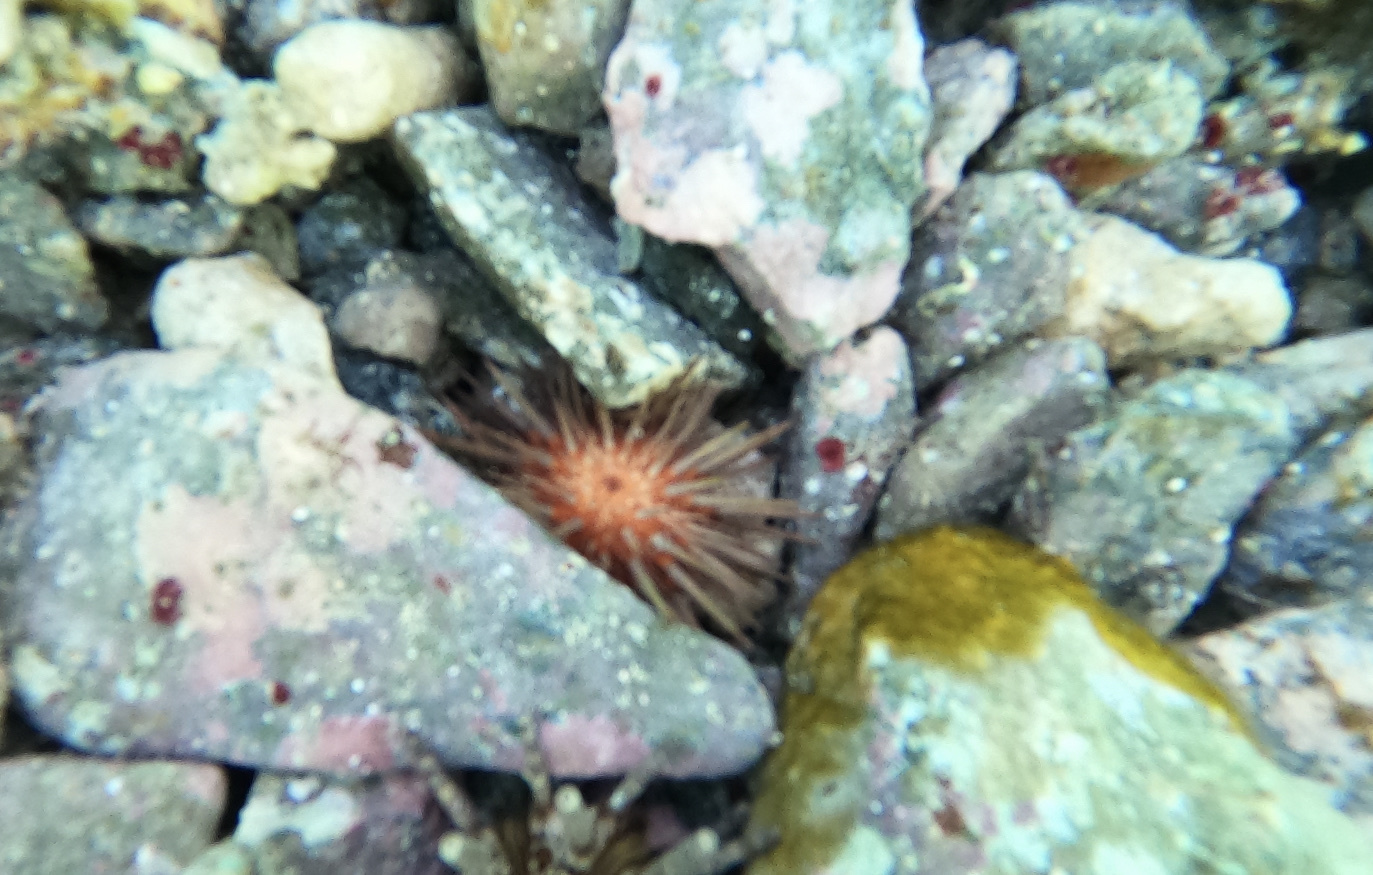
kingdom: Animalia
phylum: Echinodermata
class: Echinoidea
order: Camarodonta
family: Echinometridae
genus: Echinometra
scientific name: Echinometra lucunter
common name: Rock urchin
